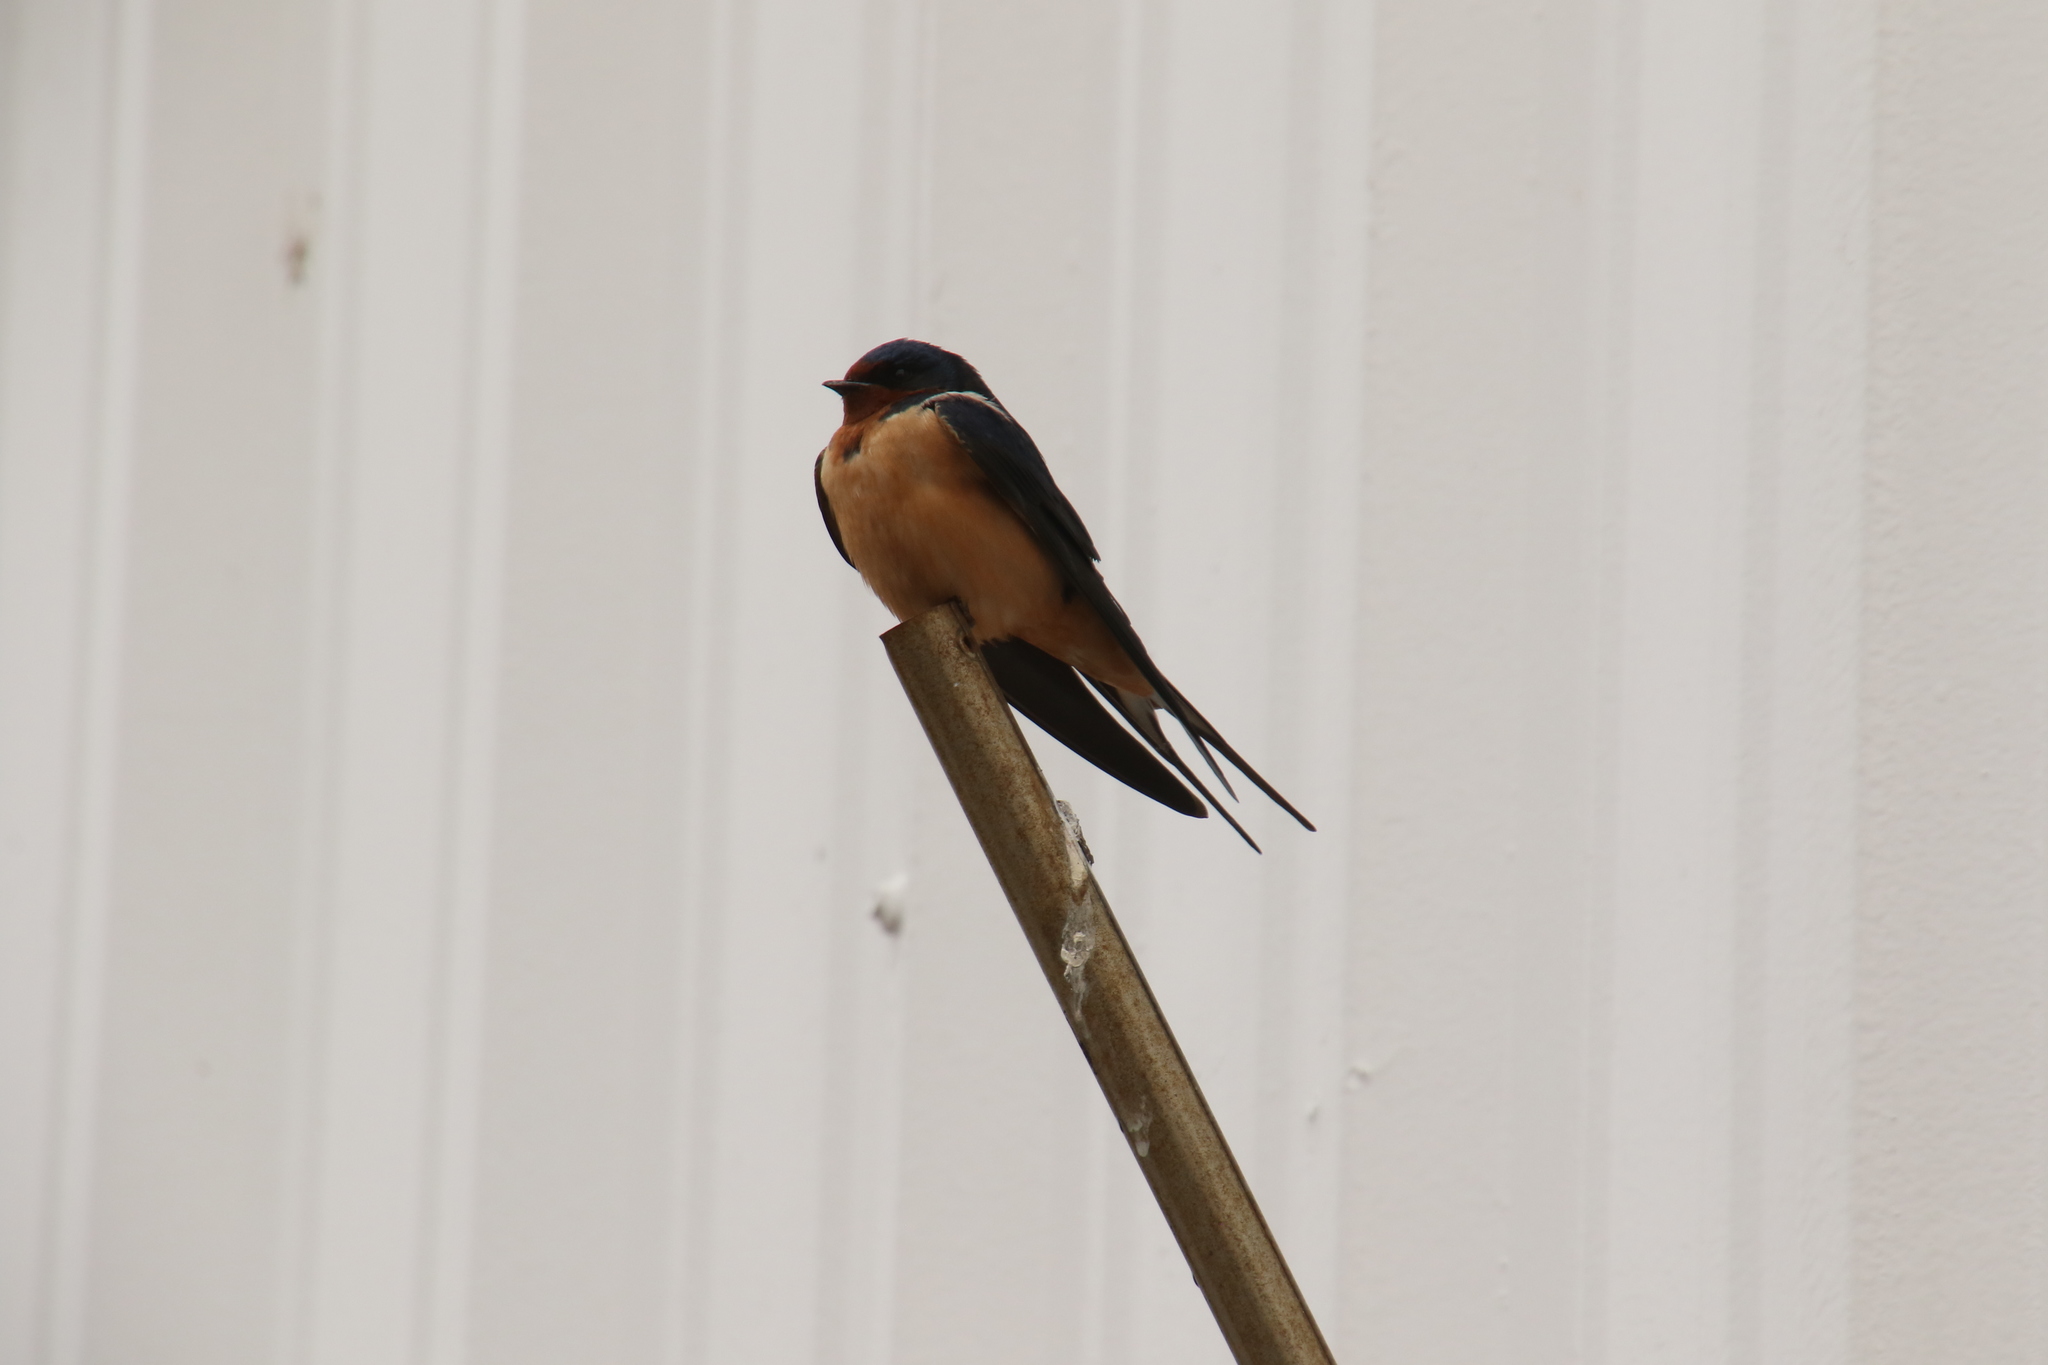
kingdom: Animalia
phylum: Chordata
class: Aves
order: Passeriformes
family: Hirundinidae
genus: Hirundo
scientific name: Hirundo rustica
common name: Barn swallow
